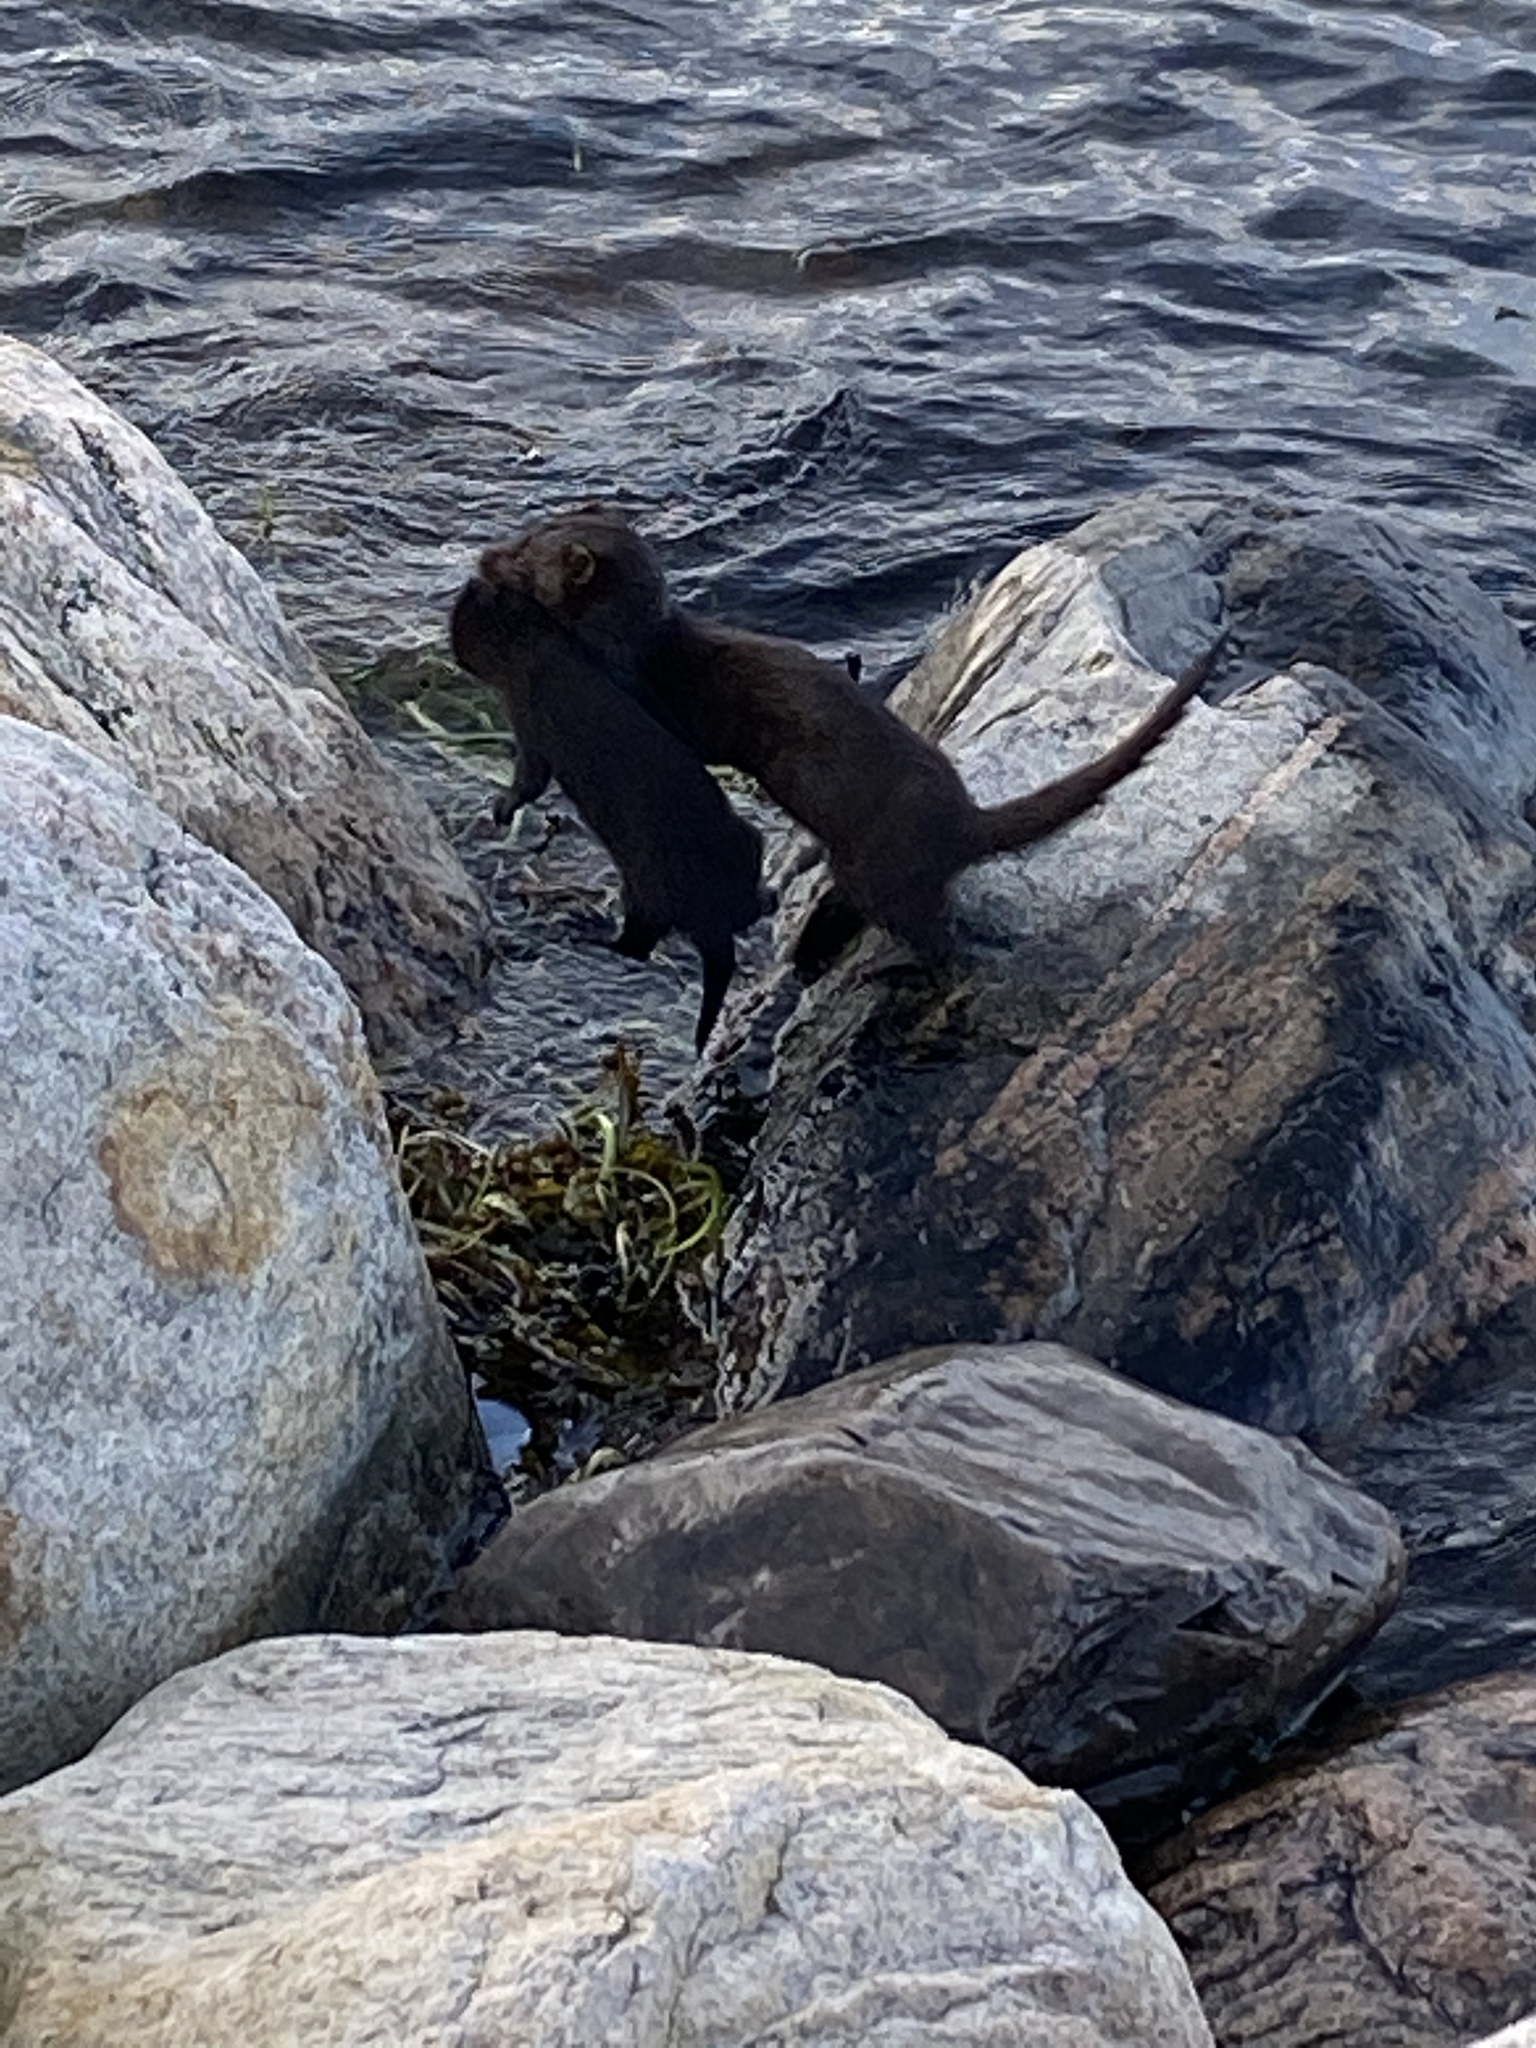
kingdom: Animalia
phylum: Chordata
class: Mammalia
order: Carnivora
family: Mustelidae
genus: Mustela
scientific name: Mustela
